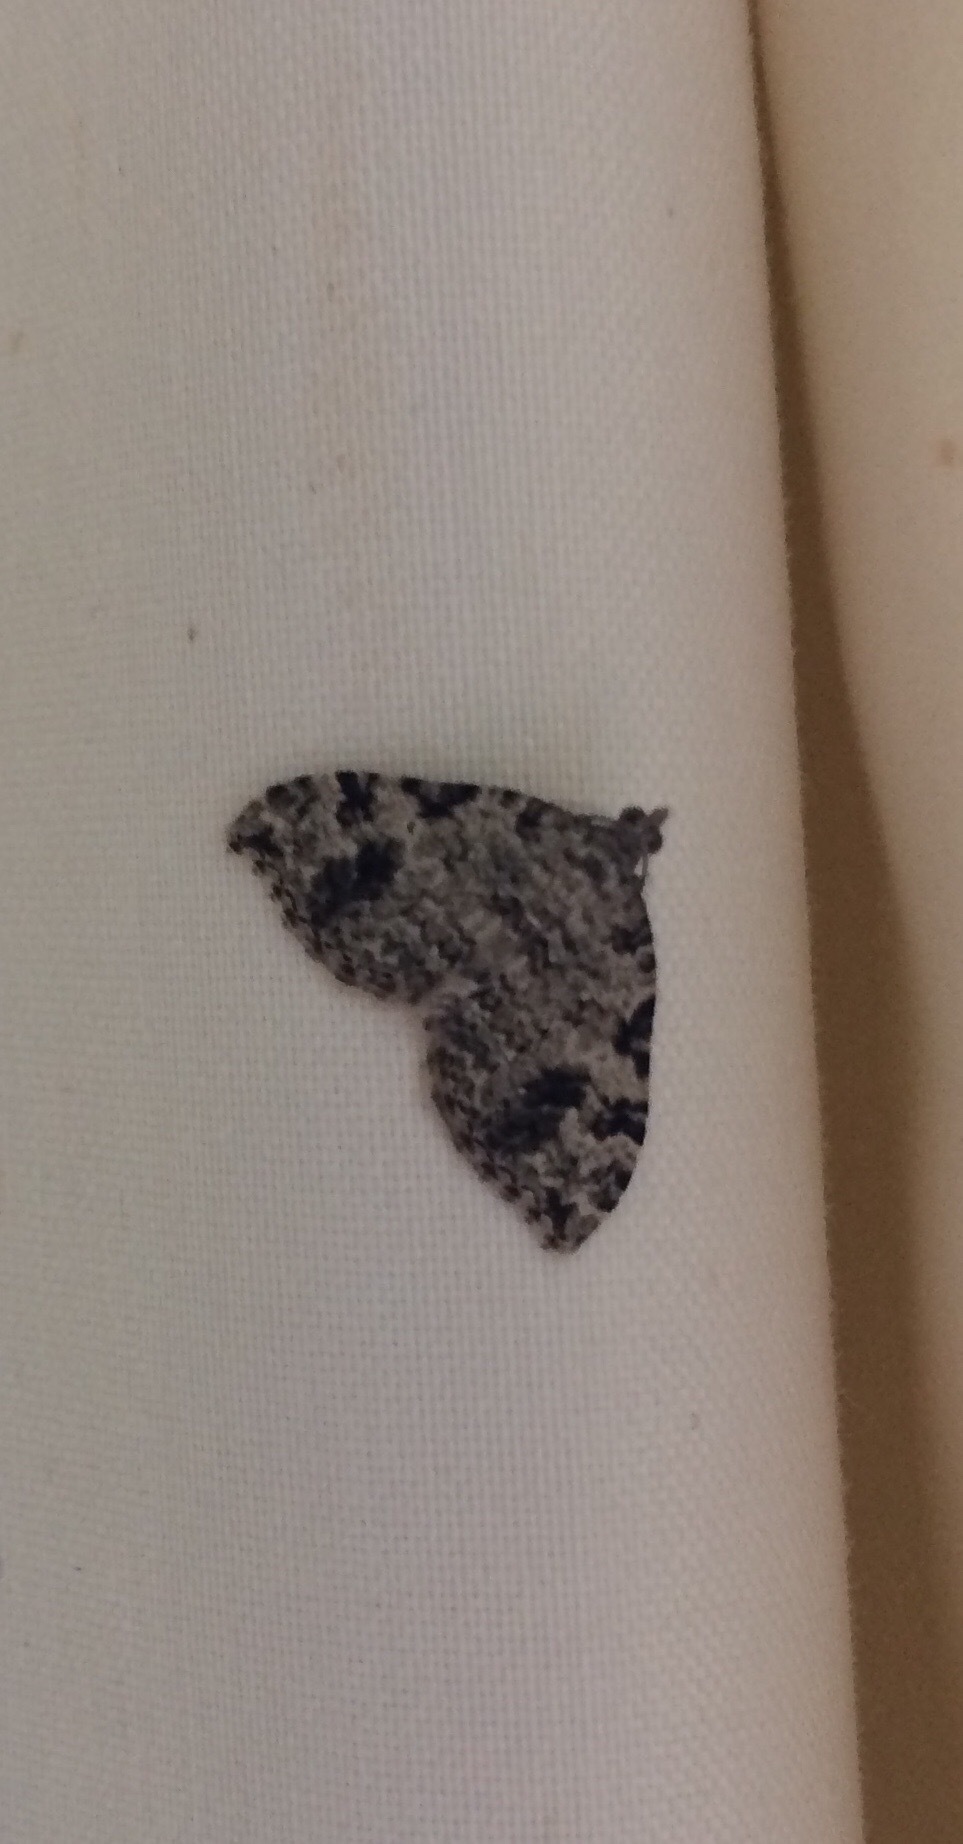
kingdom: Animalia
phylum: Arthropoda
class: Insecta
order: Lepidoptera
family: Geometridae
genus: Helastia
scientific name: Helastia cinerearia
